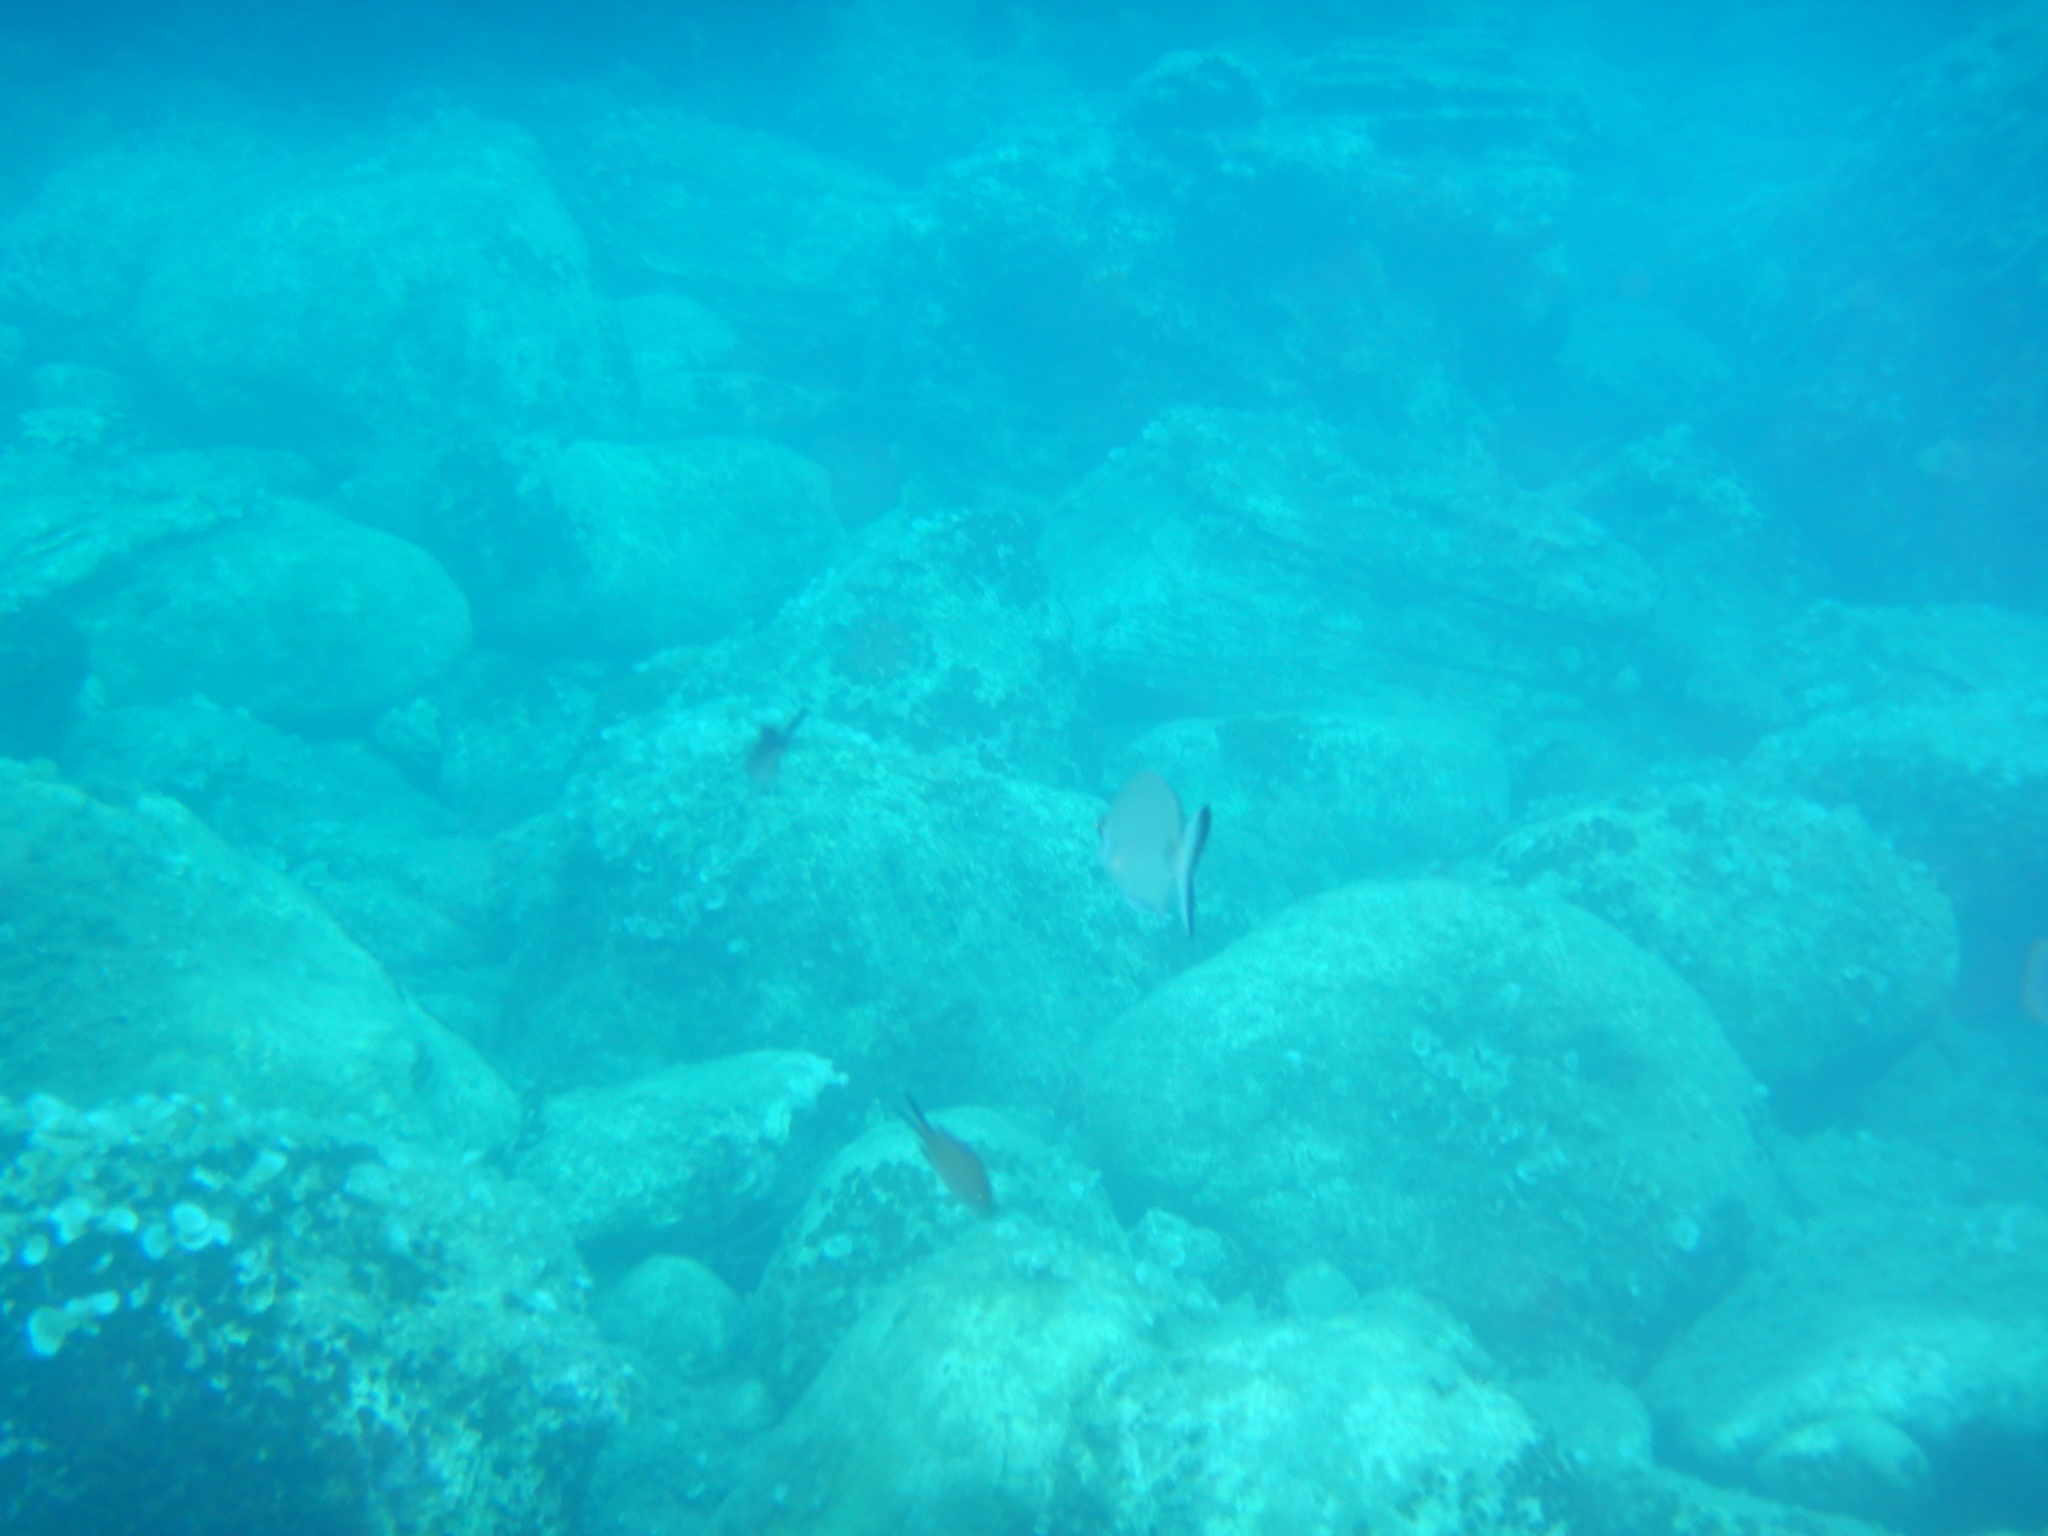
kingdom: Animalia
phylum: Chordata
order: Perciformes
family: Sparidae
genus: Diplodus
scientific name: Diplodus sargus
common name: White seabream
